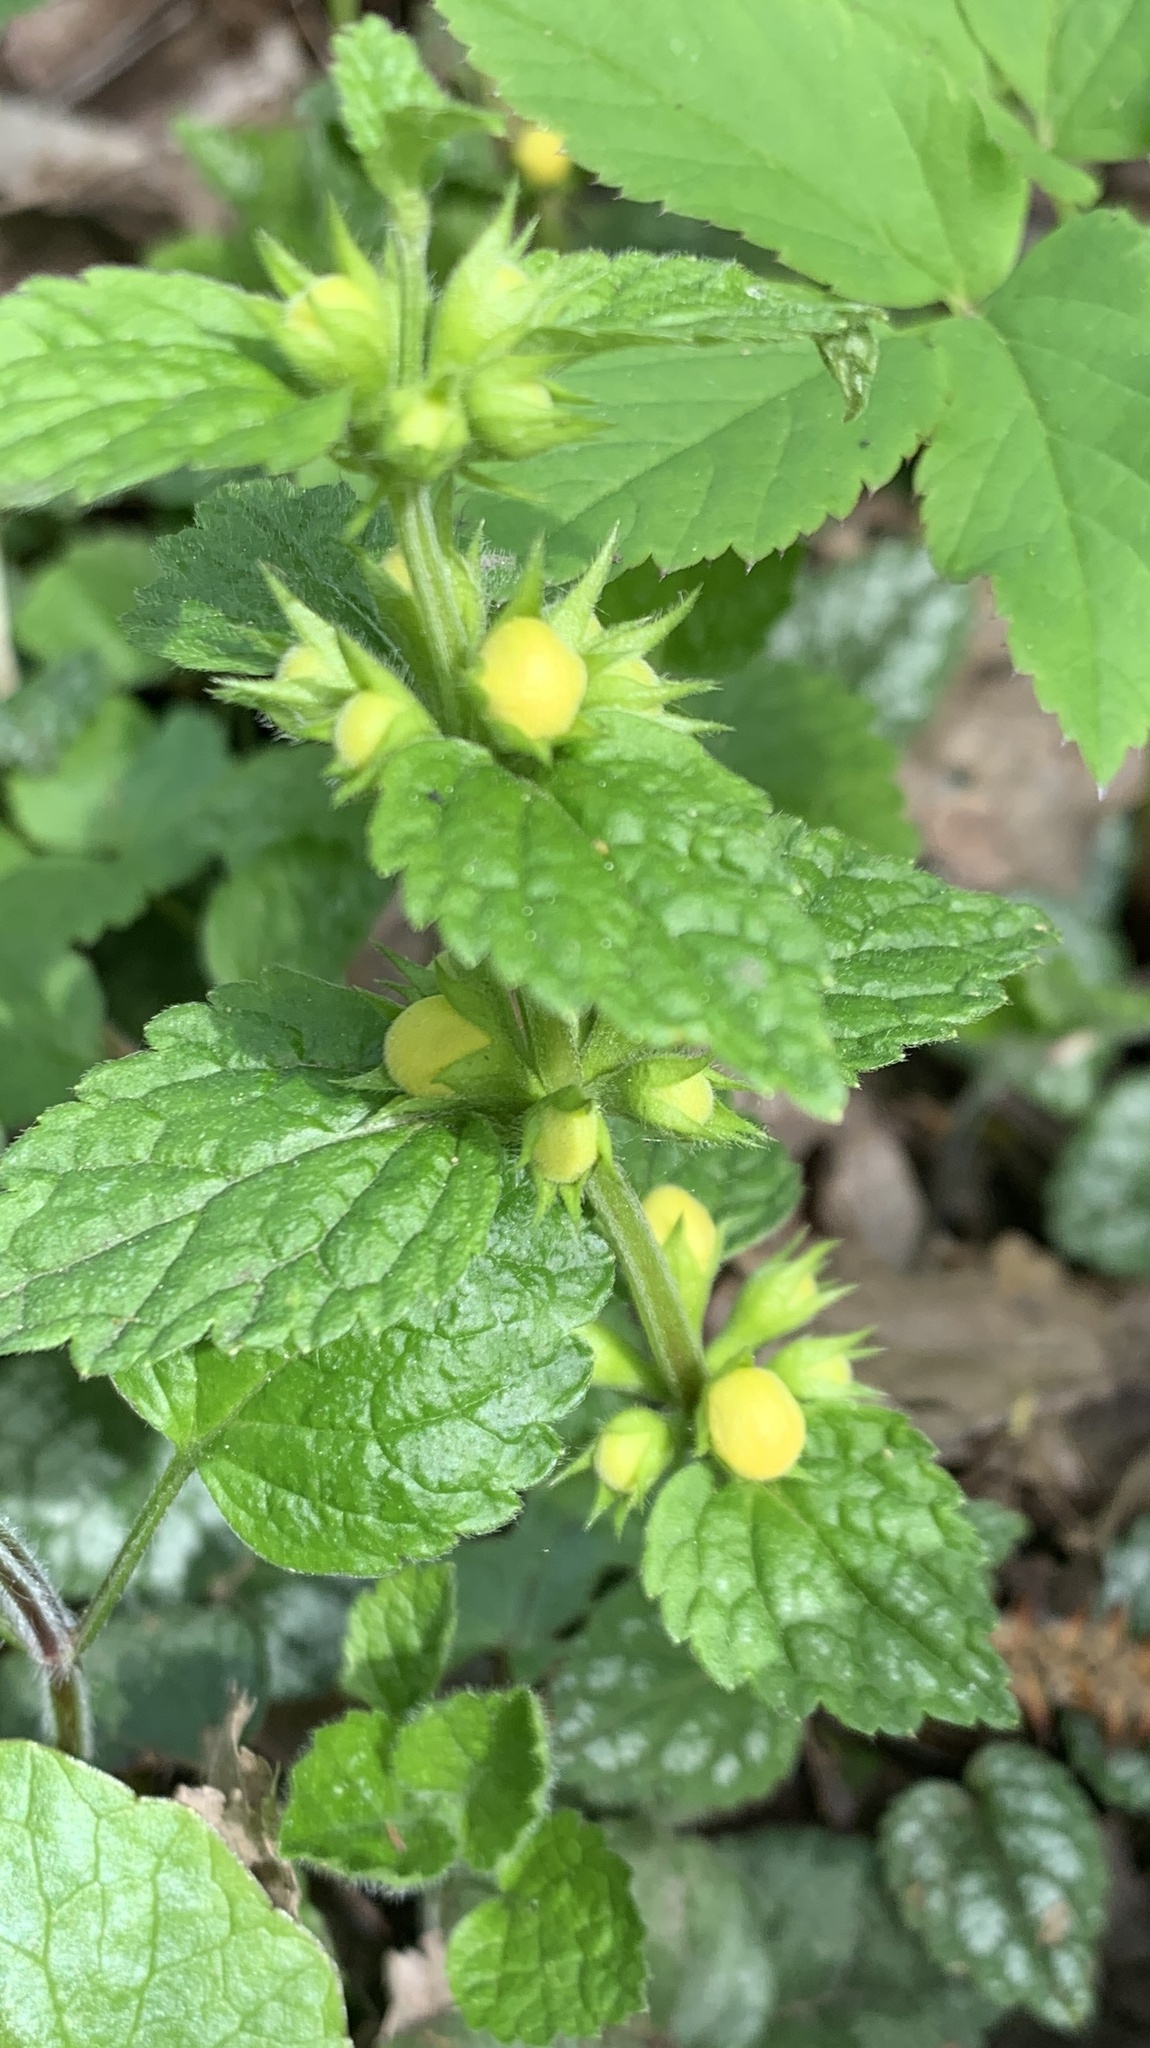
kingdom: Plantae
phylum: Tracheophyta
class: Magnoliopsida
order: Lamiales
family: Lamiaceae
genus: Lamium
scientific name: Lamium galeobdolon
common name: Yellow archangel
